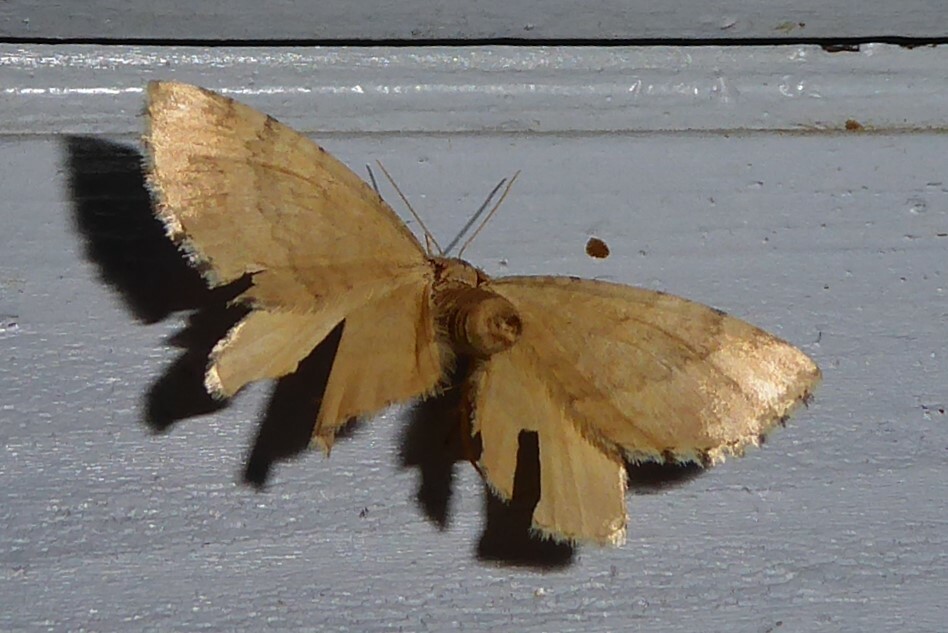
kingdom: Animalia
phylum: Arthropoda
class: Insecta
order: Lepidoptera
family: Geometridae
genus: Asaphodes
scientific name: Asaphodes aegrota
